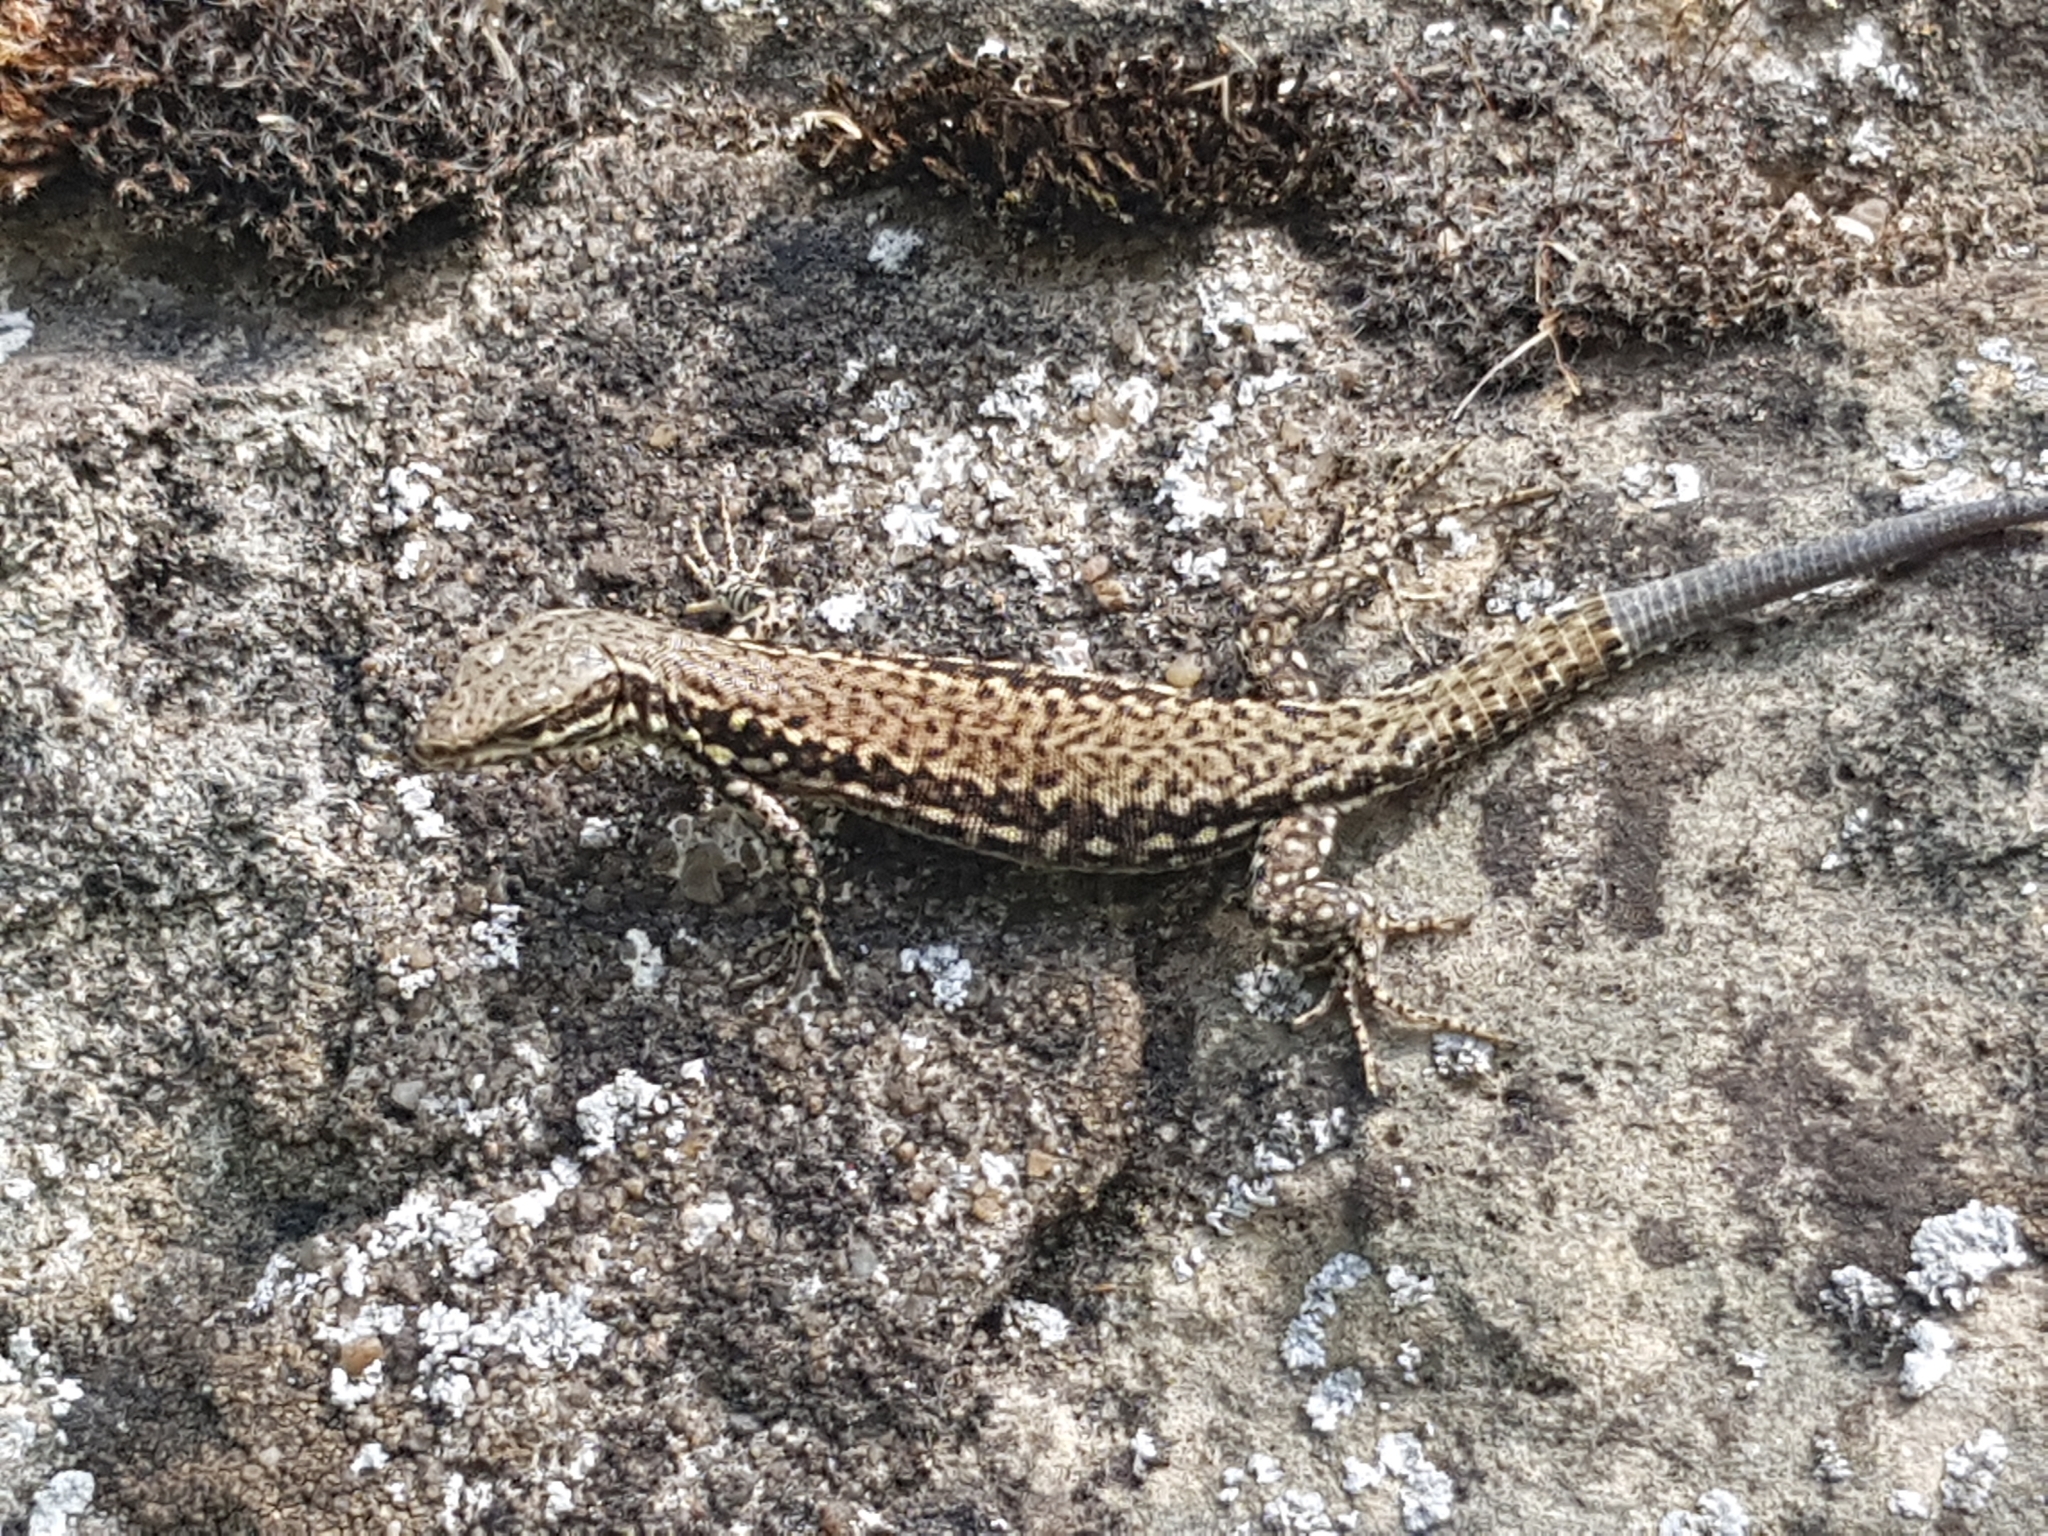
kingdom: Animalia
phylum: Chordata
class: Squamata
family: Lacertidae
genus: Podarcis
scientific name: Podarcis muralis
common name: Common wall lizard
